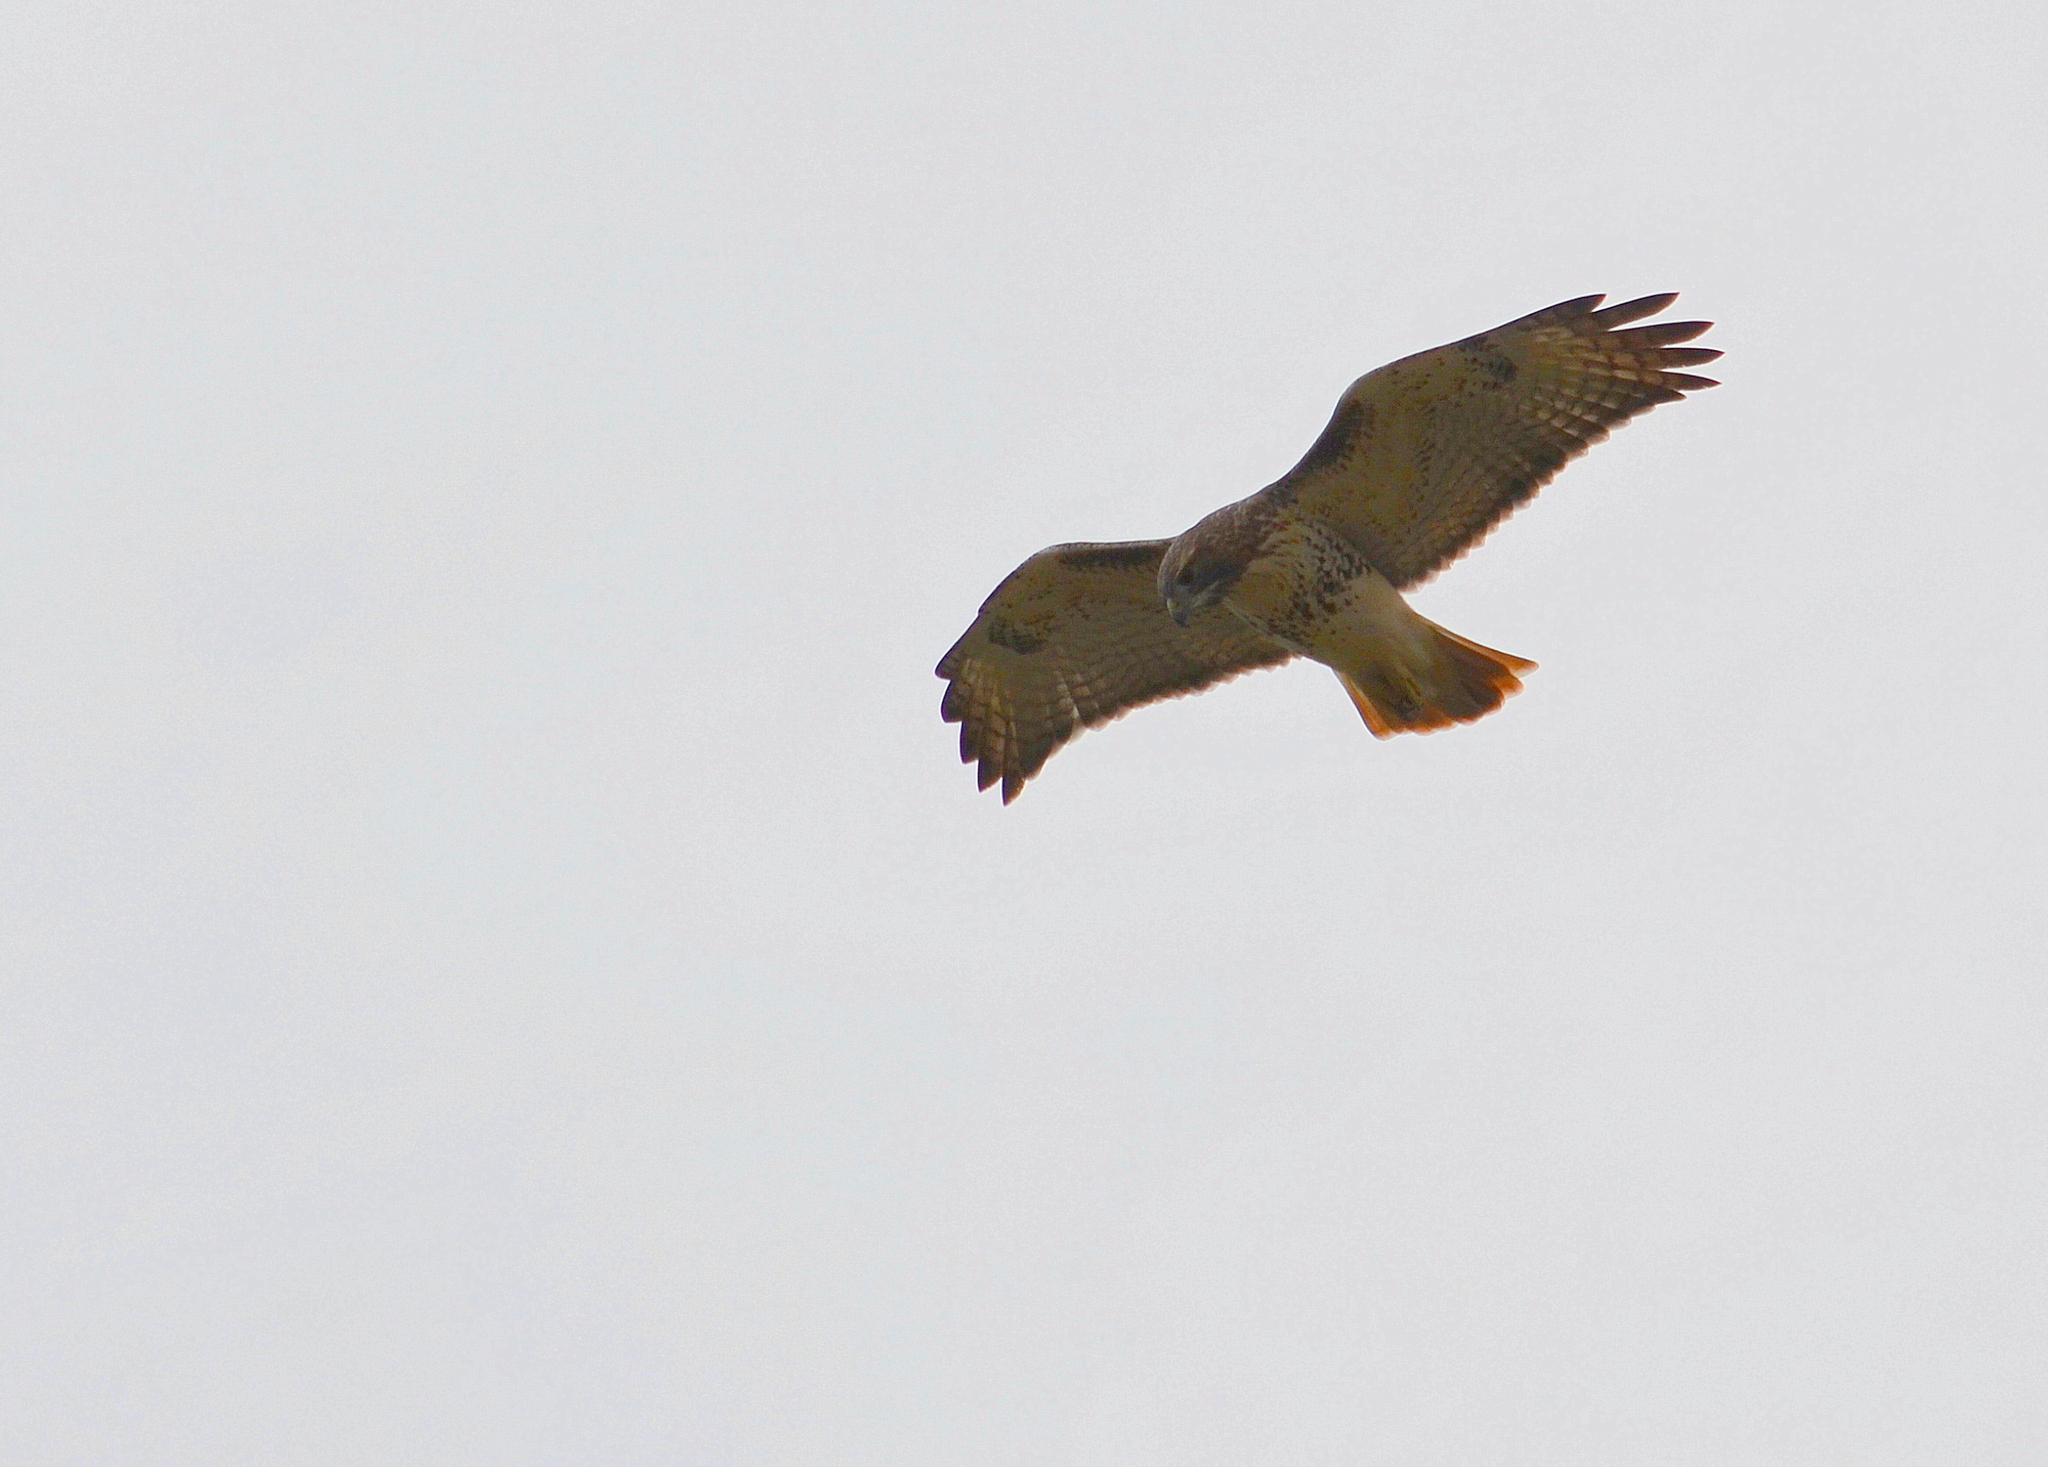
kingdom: Animalia
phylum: Chordata
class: Aves
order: Accipitriformes
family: Accipitridae
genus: Buteo
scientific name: Buteo jamaicensis
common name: Red-tailed hawk
